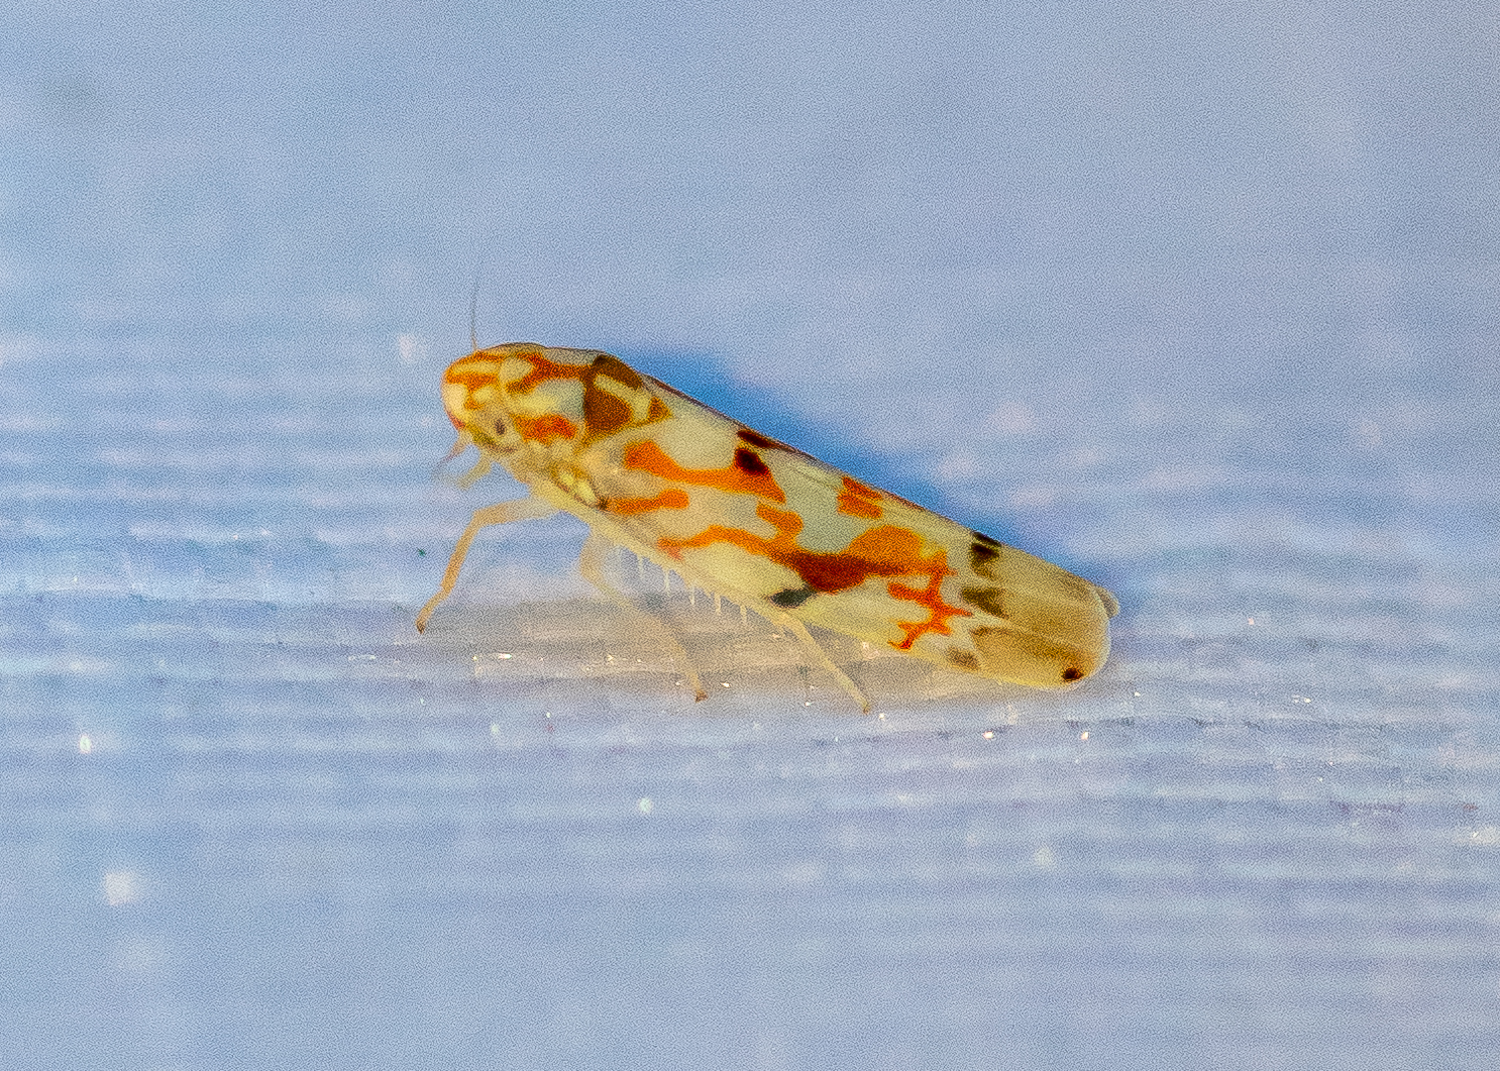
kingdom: Animalia
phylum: Arthropoda
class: Insecta
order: Hemiptera
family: Cicadellidae
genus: Erythroneura
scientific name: Erythroneura vagabunda
